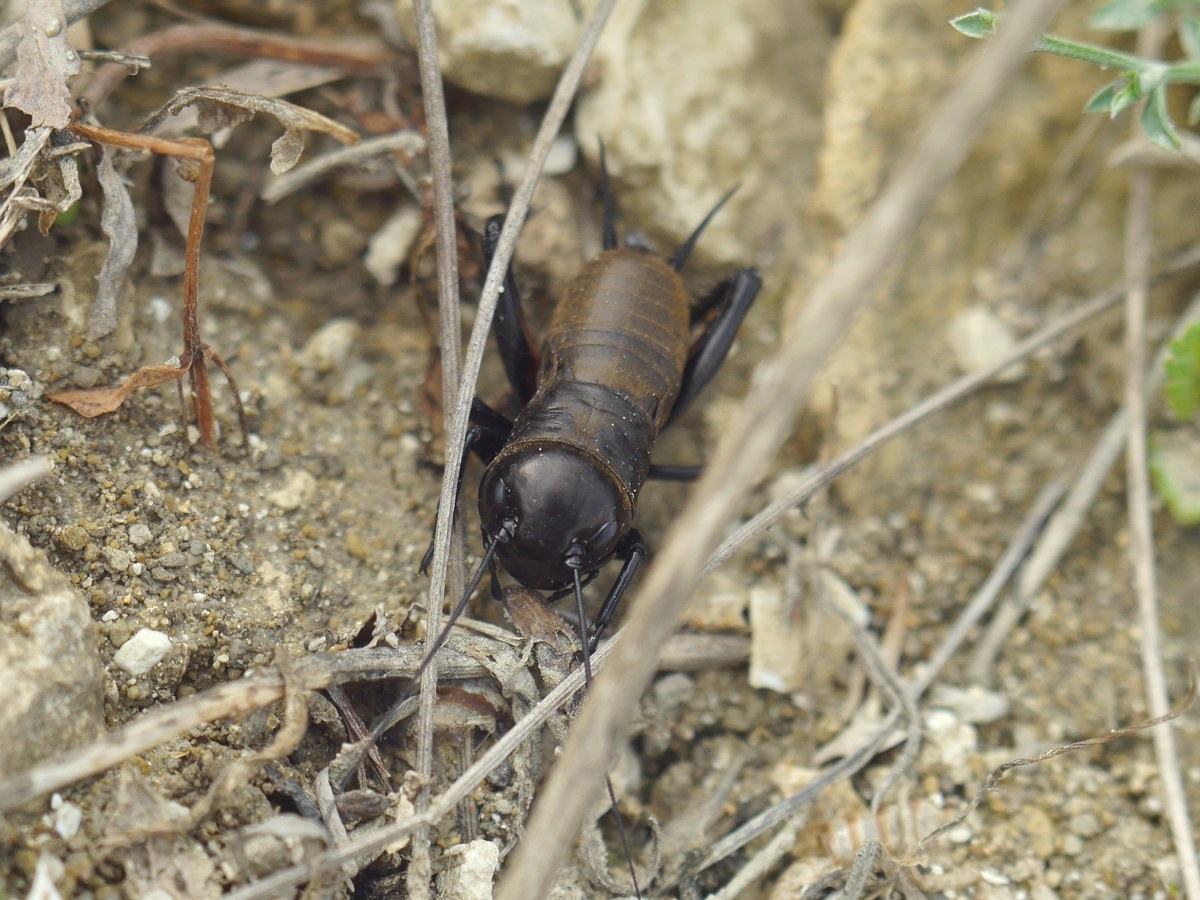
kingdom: Animalia
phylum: Arthropoda
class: Insecta
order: Orthoptera
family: Gryllidae
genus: Gryllus
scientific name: Gryllus campestris
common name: Field cricket
